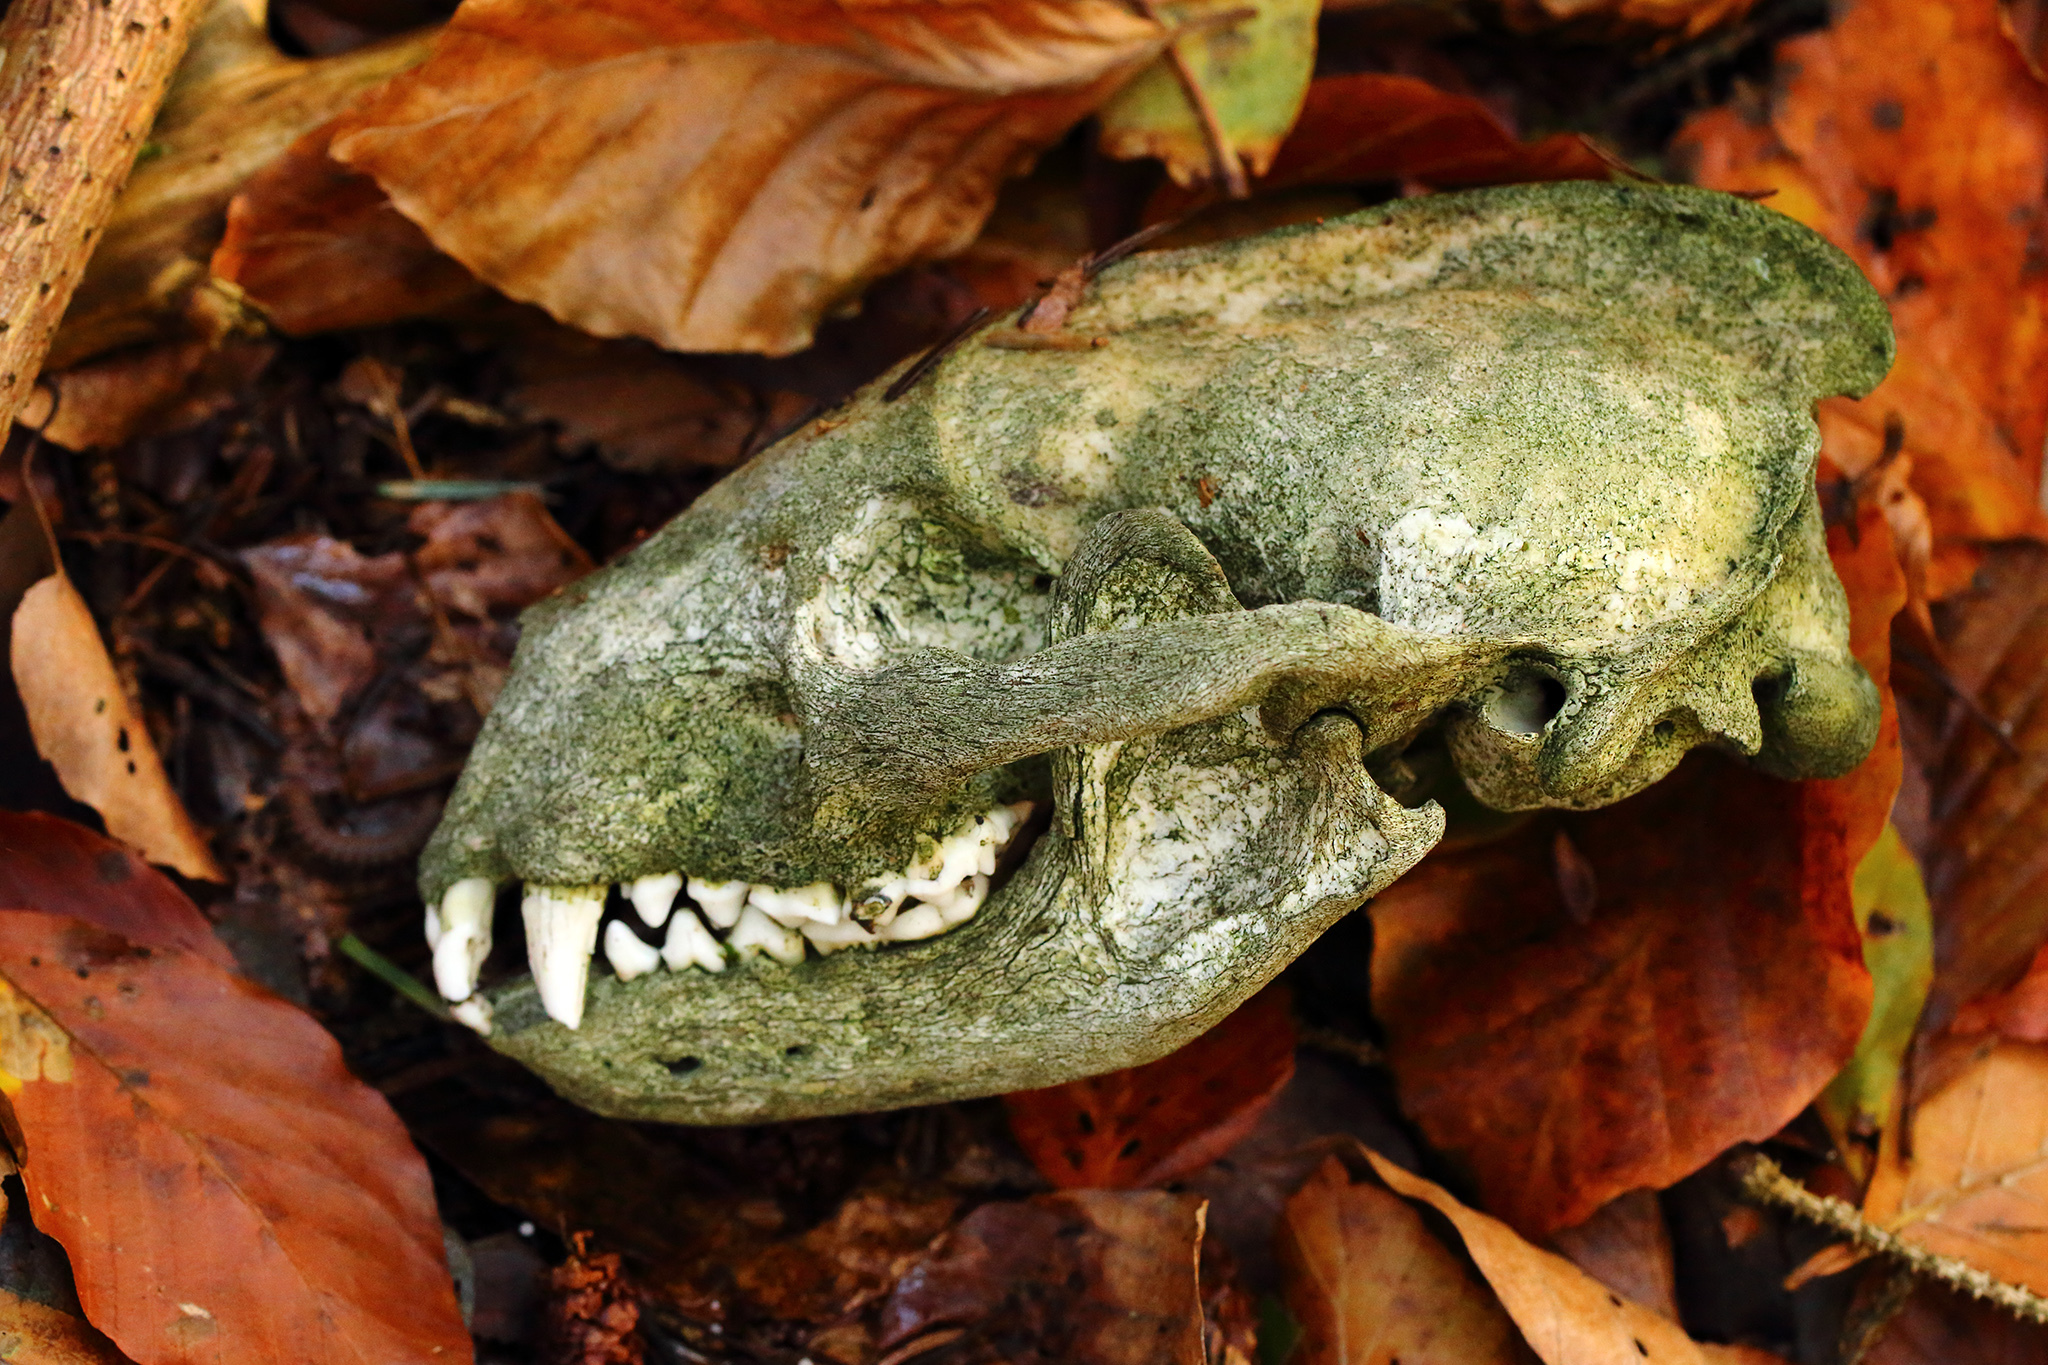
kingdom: Animalia
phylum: Chordata
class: Mammalia
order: Carnivora
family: Mustelidae
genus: Meles
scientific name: Meles meles
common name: Eurasian badger
